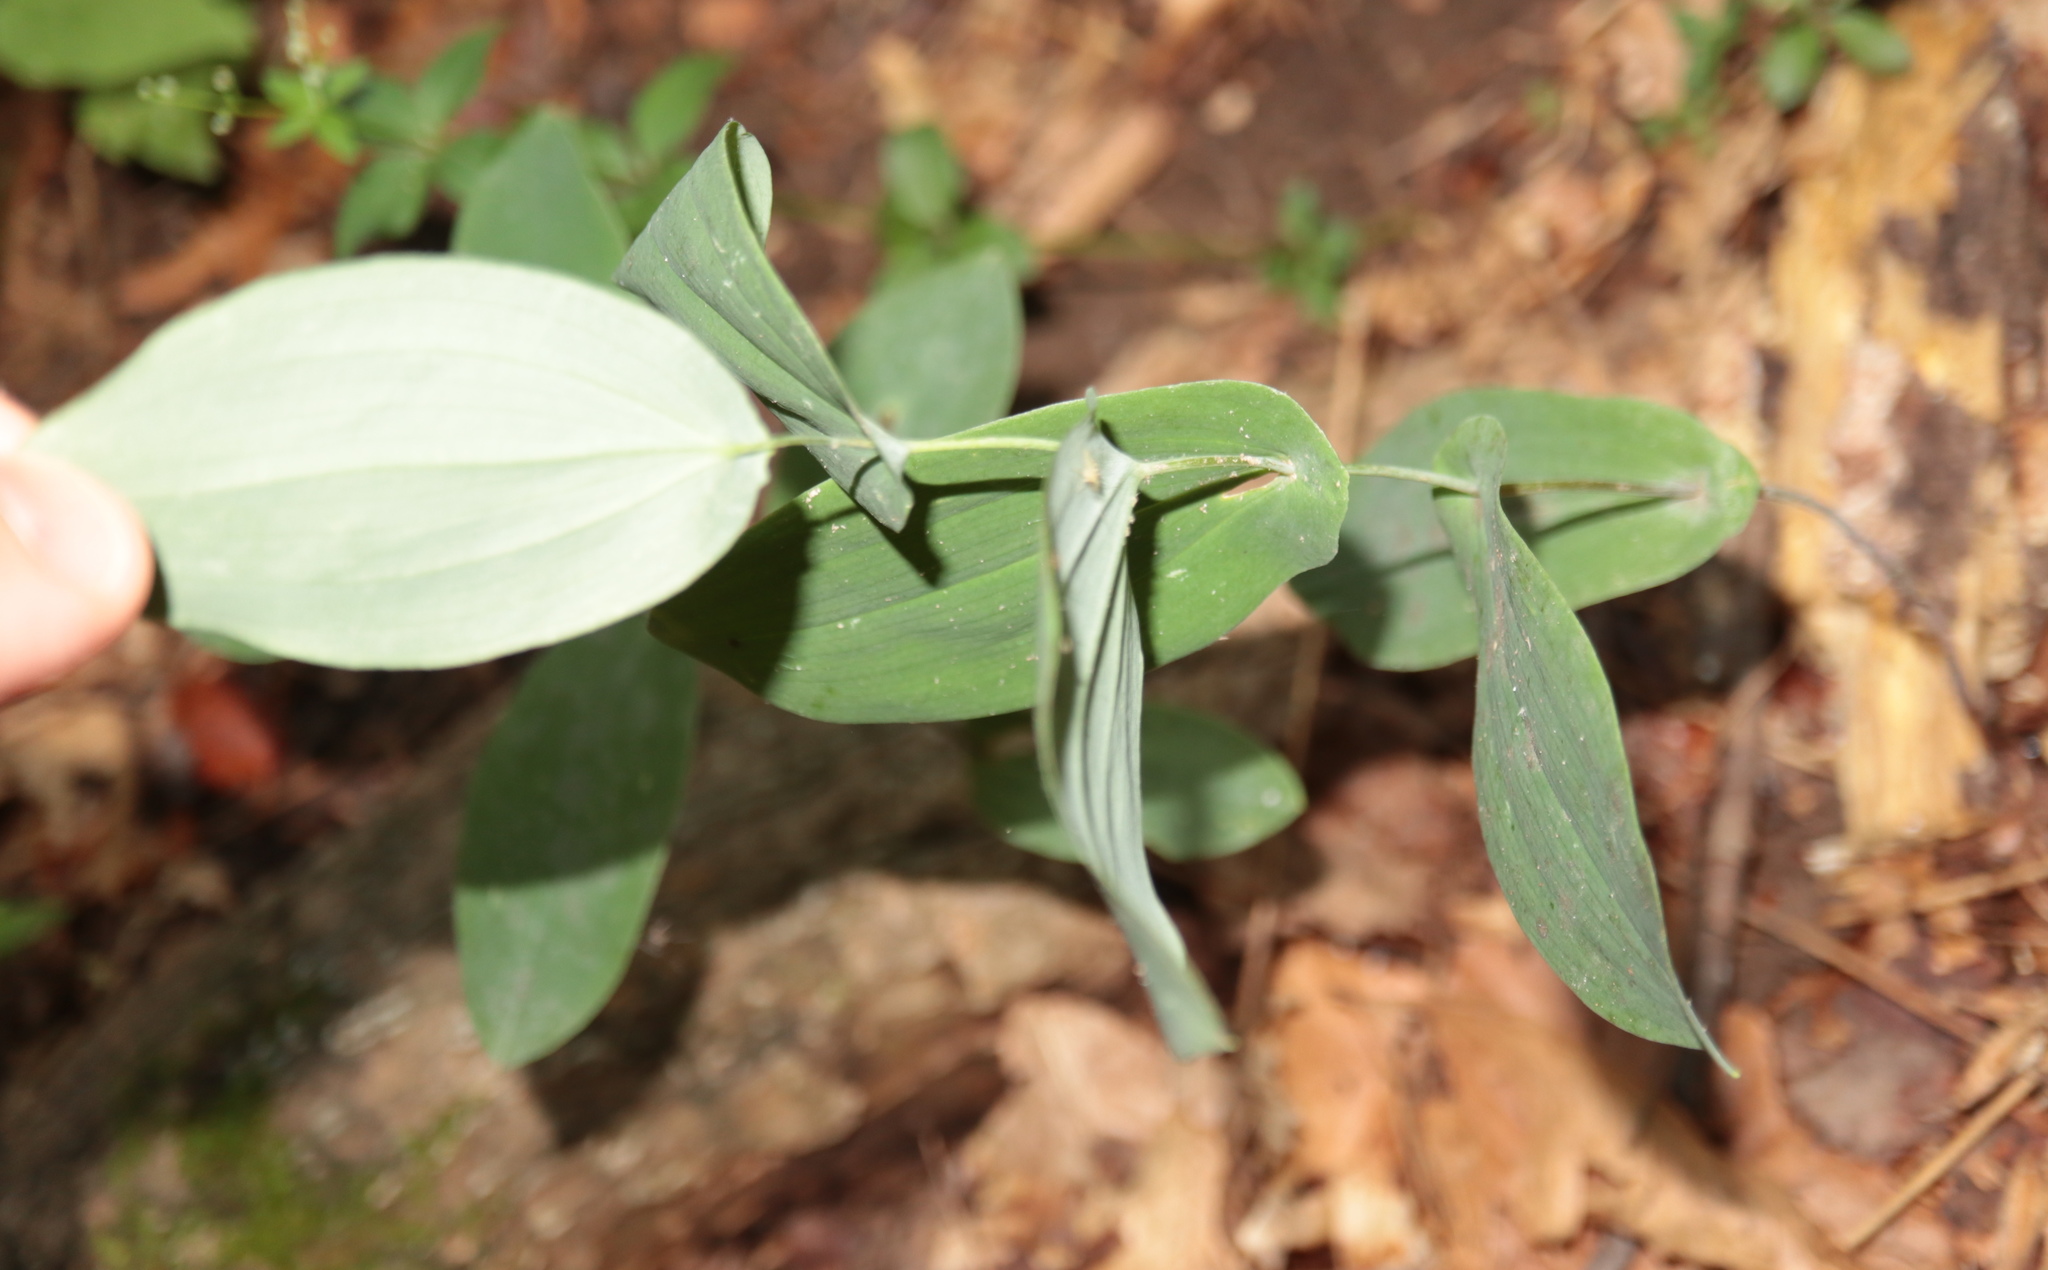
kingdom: Plantae
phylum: Tracheophyta
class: Liliopsida
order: Liliales
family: Colchicaceae
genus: Uvularia
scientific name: Uvularia perfoliata
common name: Perfoliate bellwort
